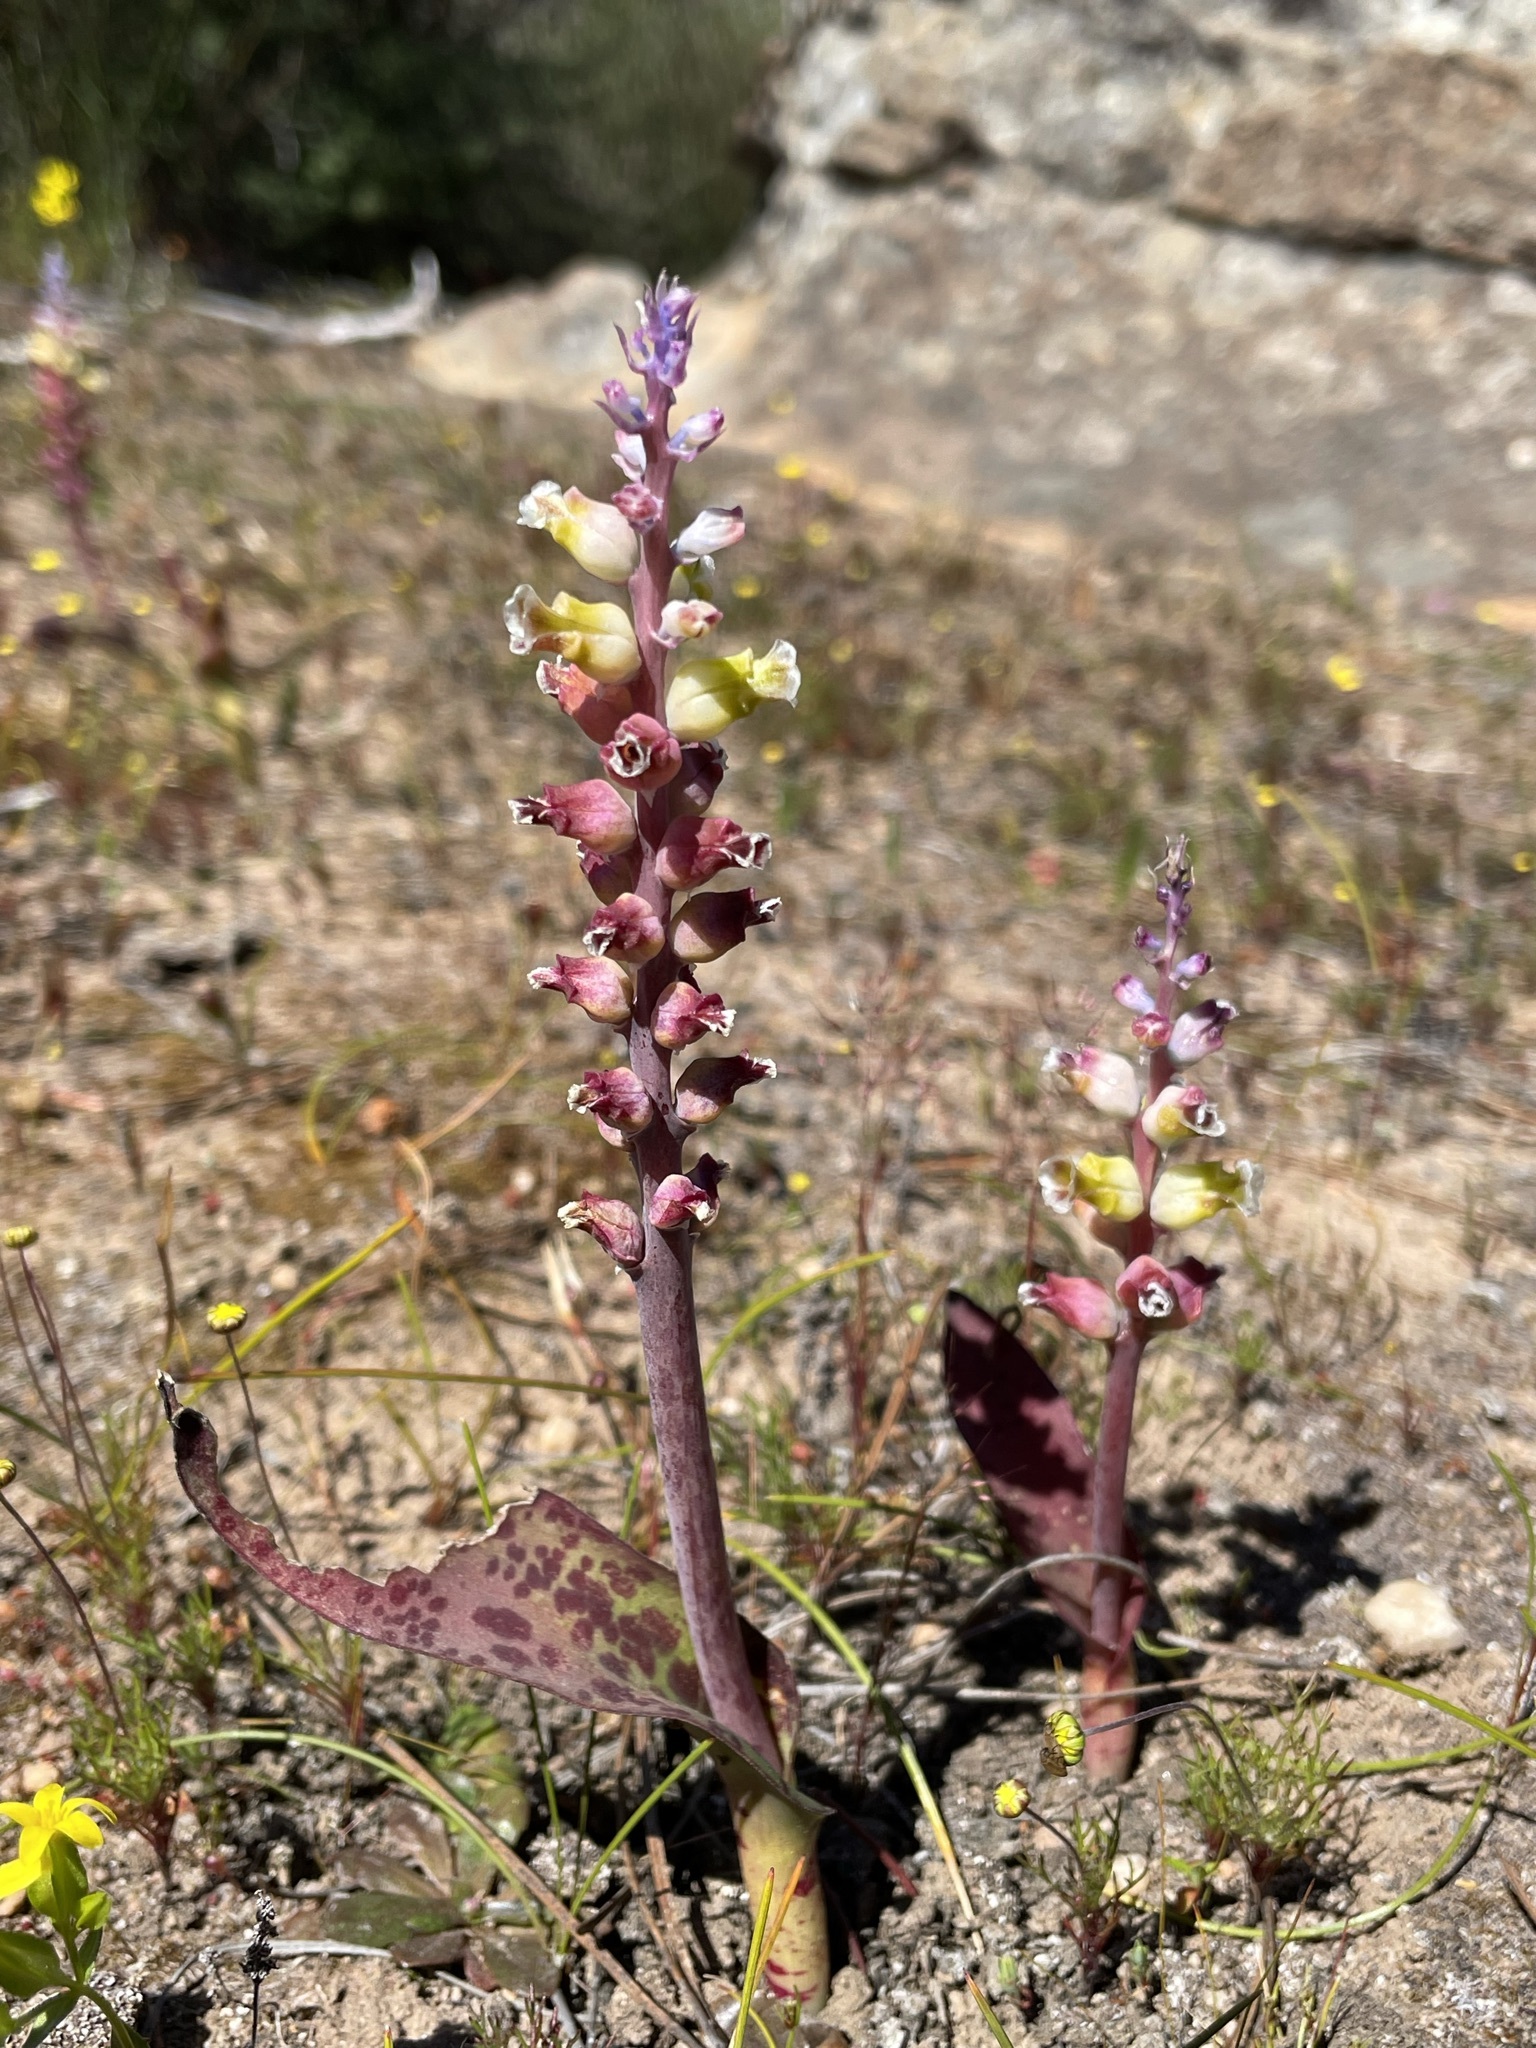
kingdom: Plantae
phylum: Tracheophyta
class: Liliopsida
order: Asparagales
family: Asparagaceae
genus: Lachenalia
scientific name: Lachenalia membranacea
